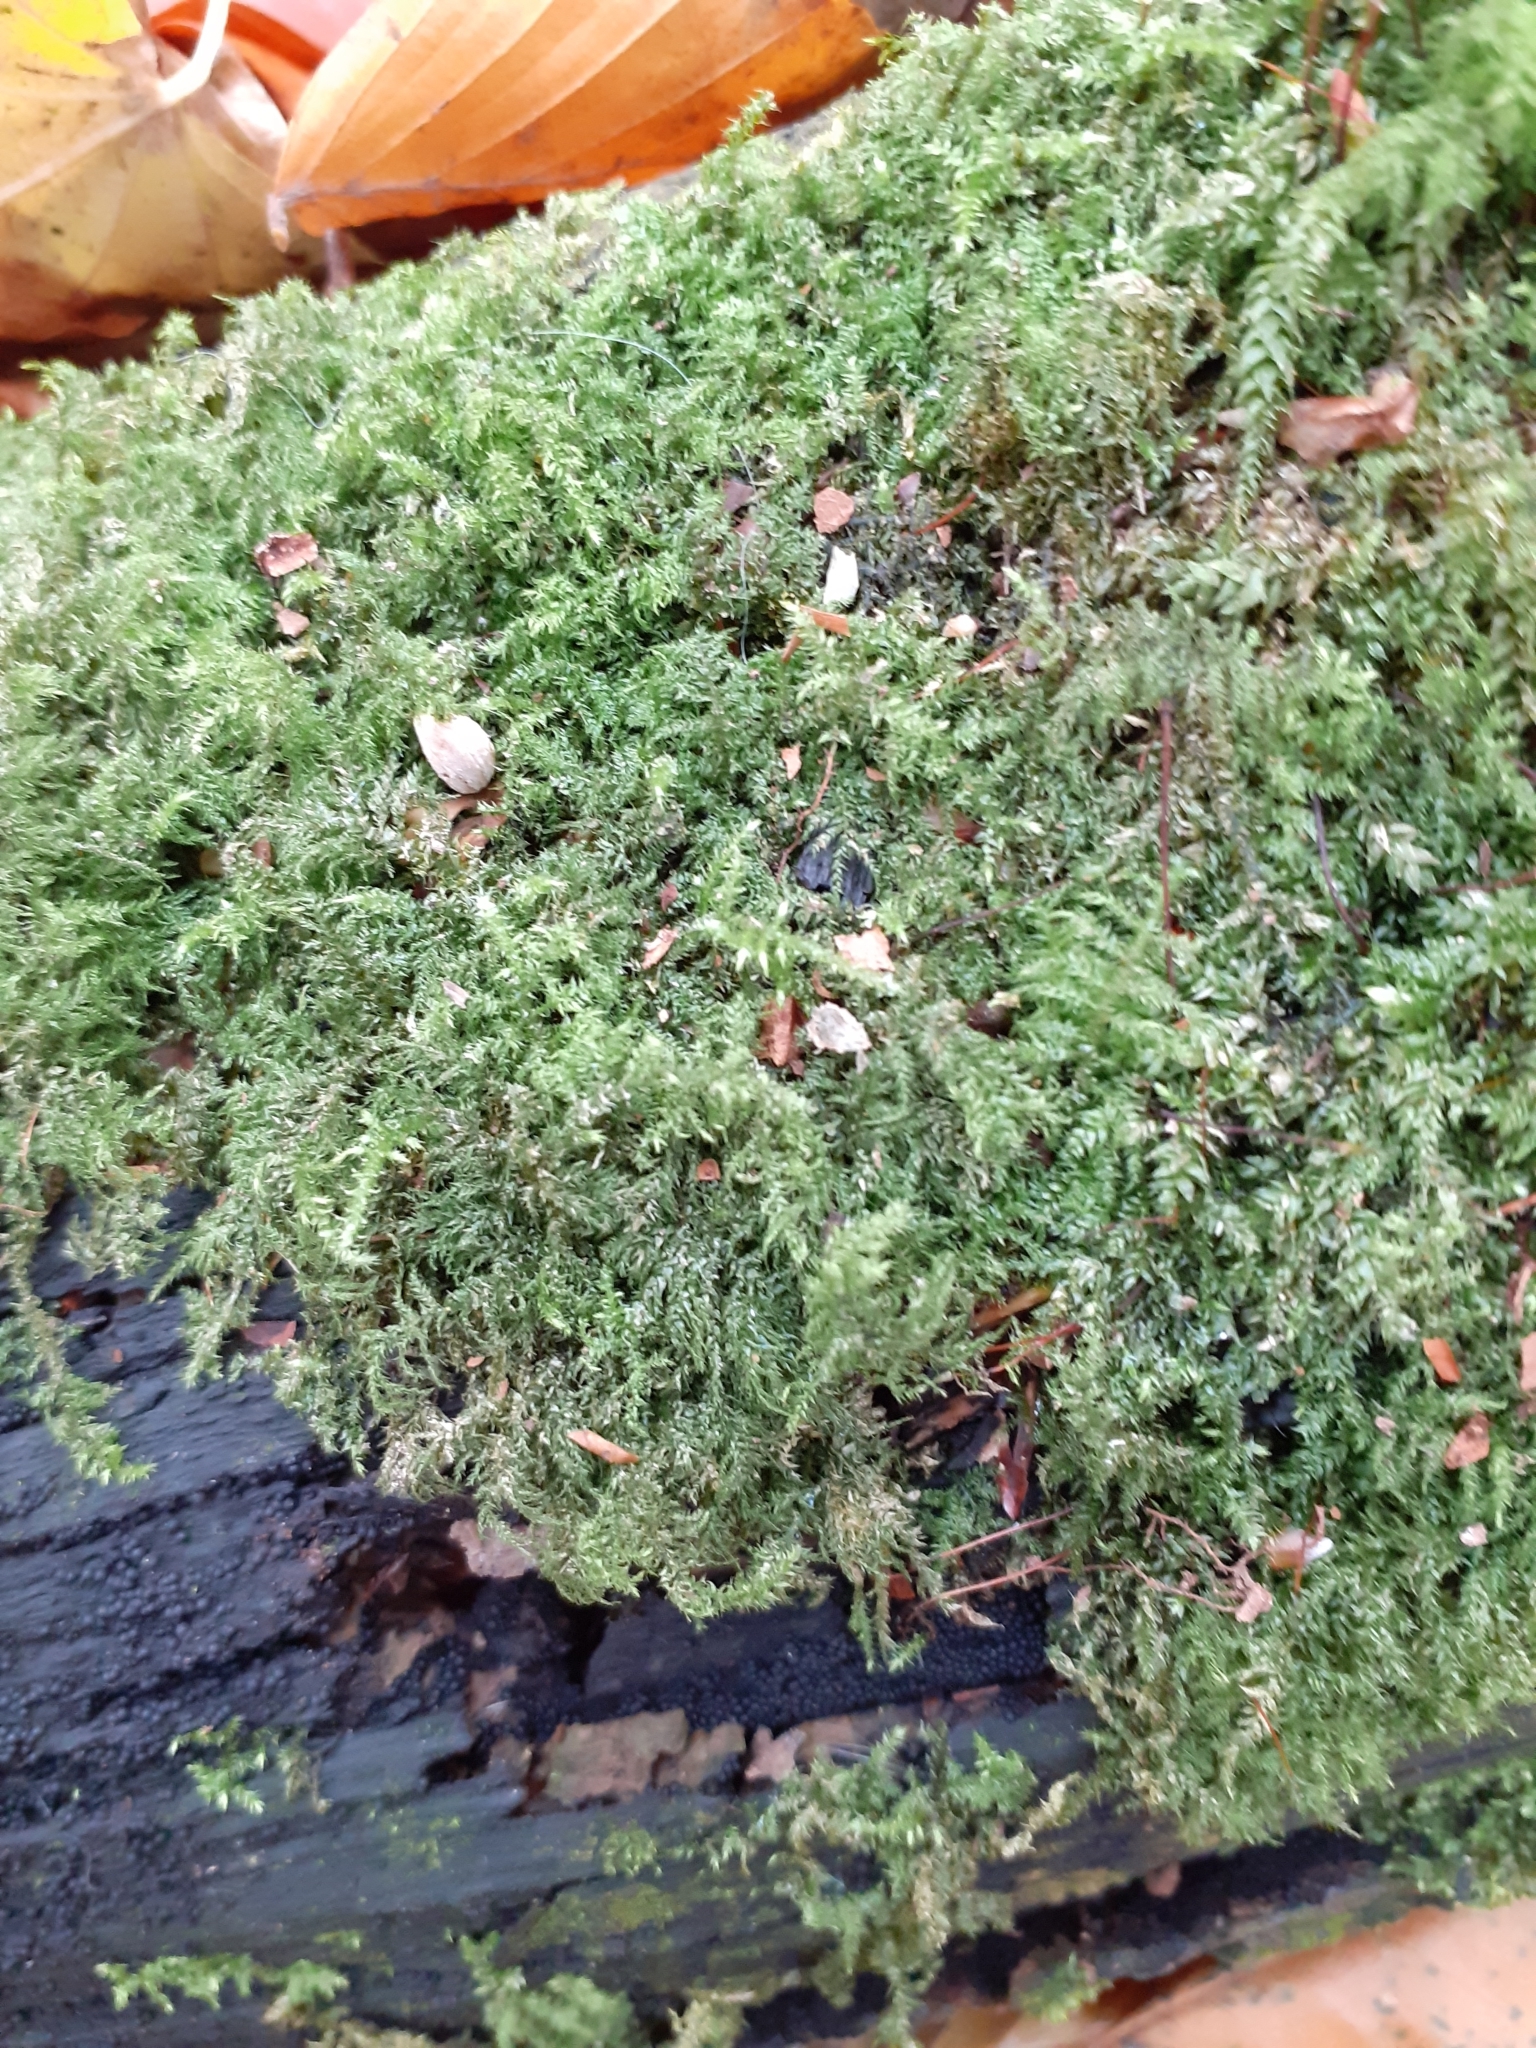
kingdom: Plantae
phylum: Bryophyta
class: Bryopsida
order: Hypnales
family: Brachytheciaceae
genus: Kindbergia
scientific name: Kindbergia praelonga
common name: Slender beaked moss
